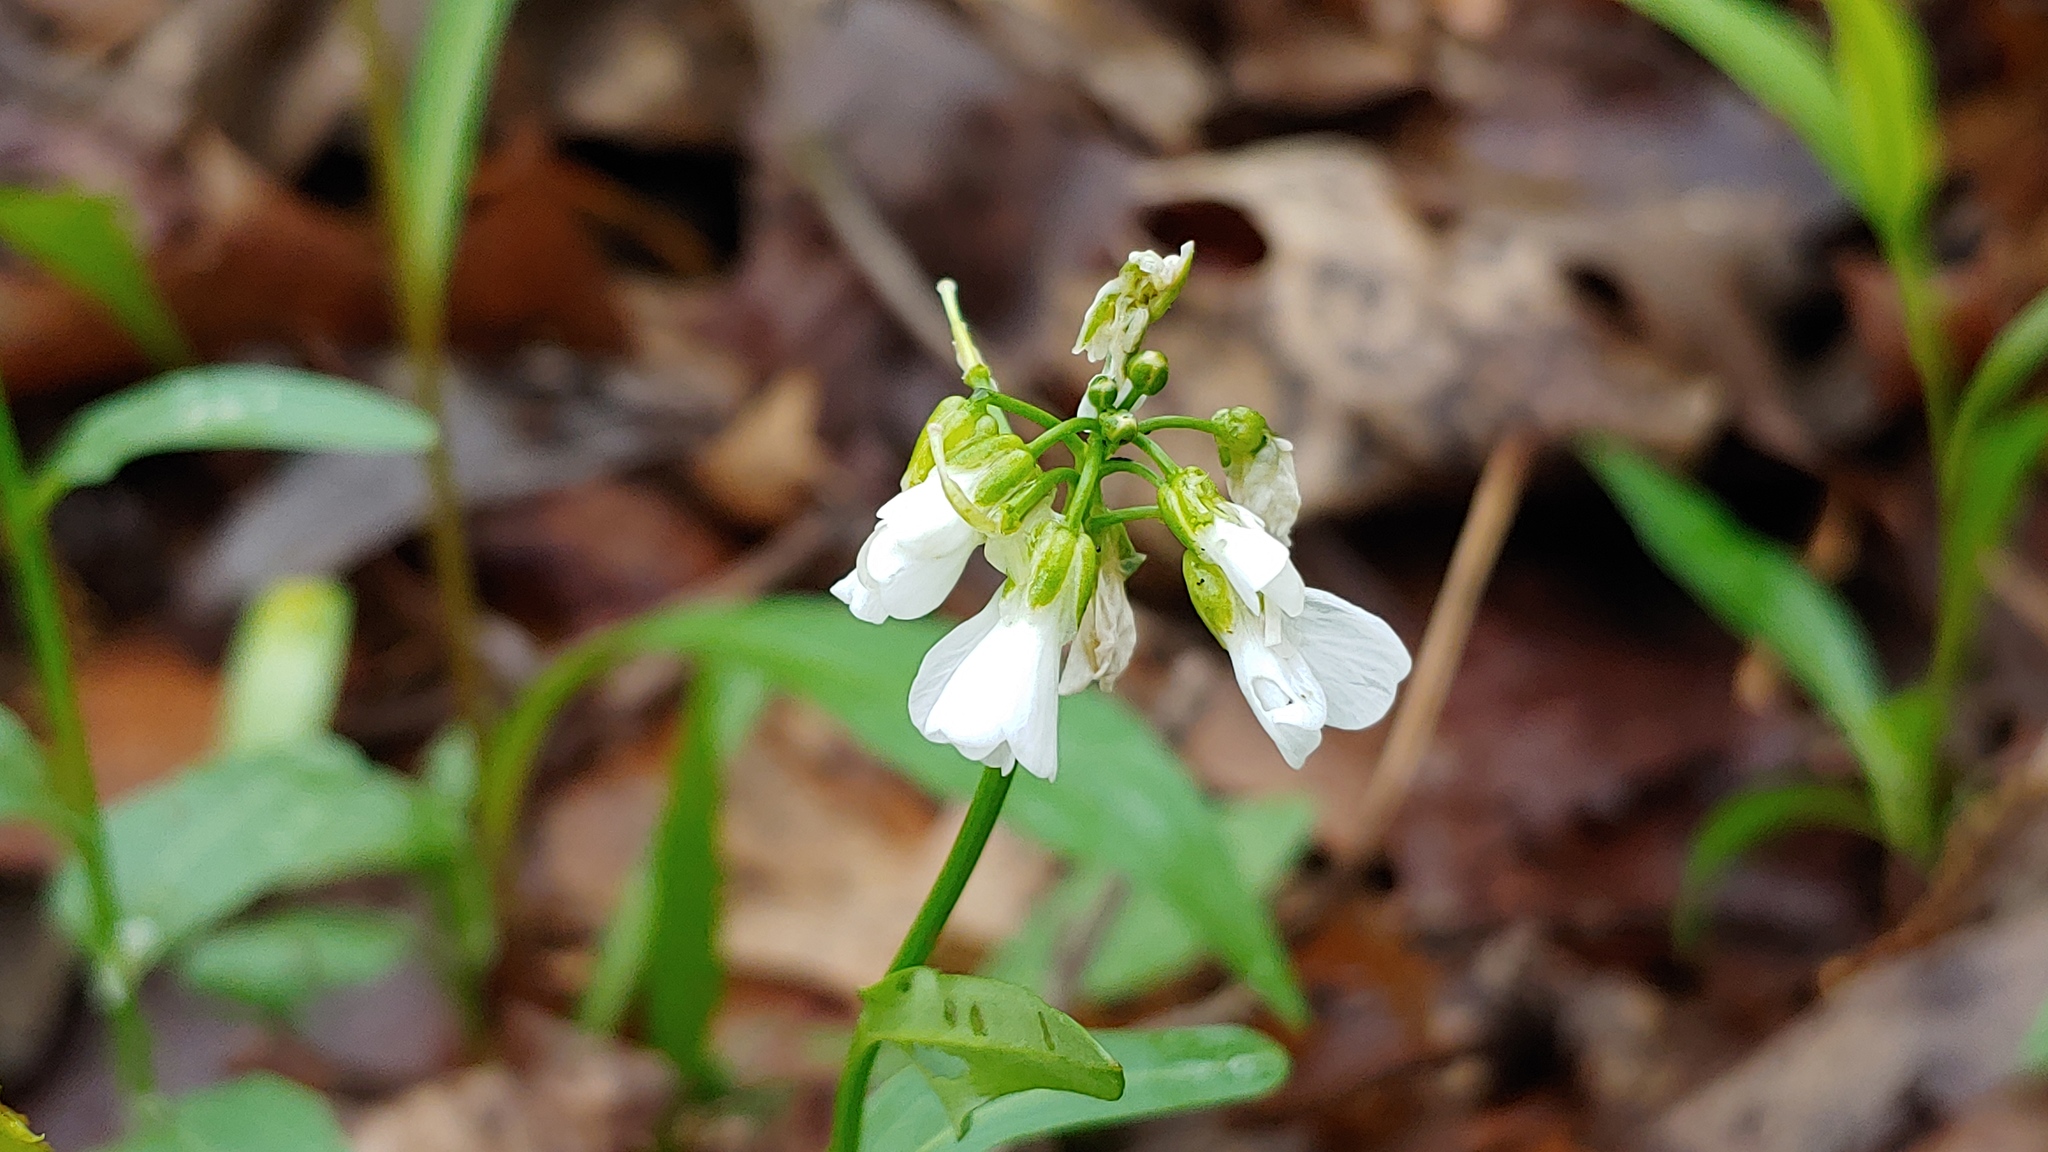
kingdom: Plantae
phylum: Tracheophyta
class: Magnoliopsida
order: Brassicales
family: Brassicaceae
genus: Cardamine
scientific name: Cardamine bulbosa
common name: Spring cress
